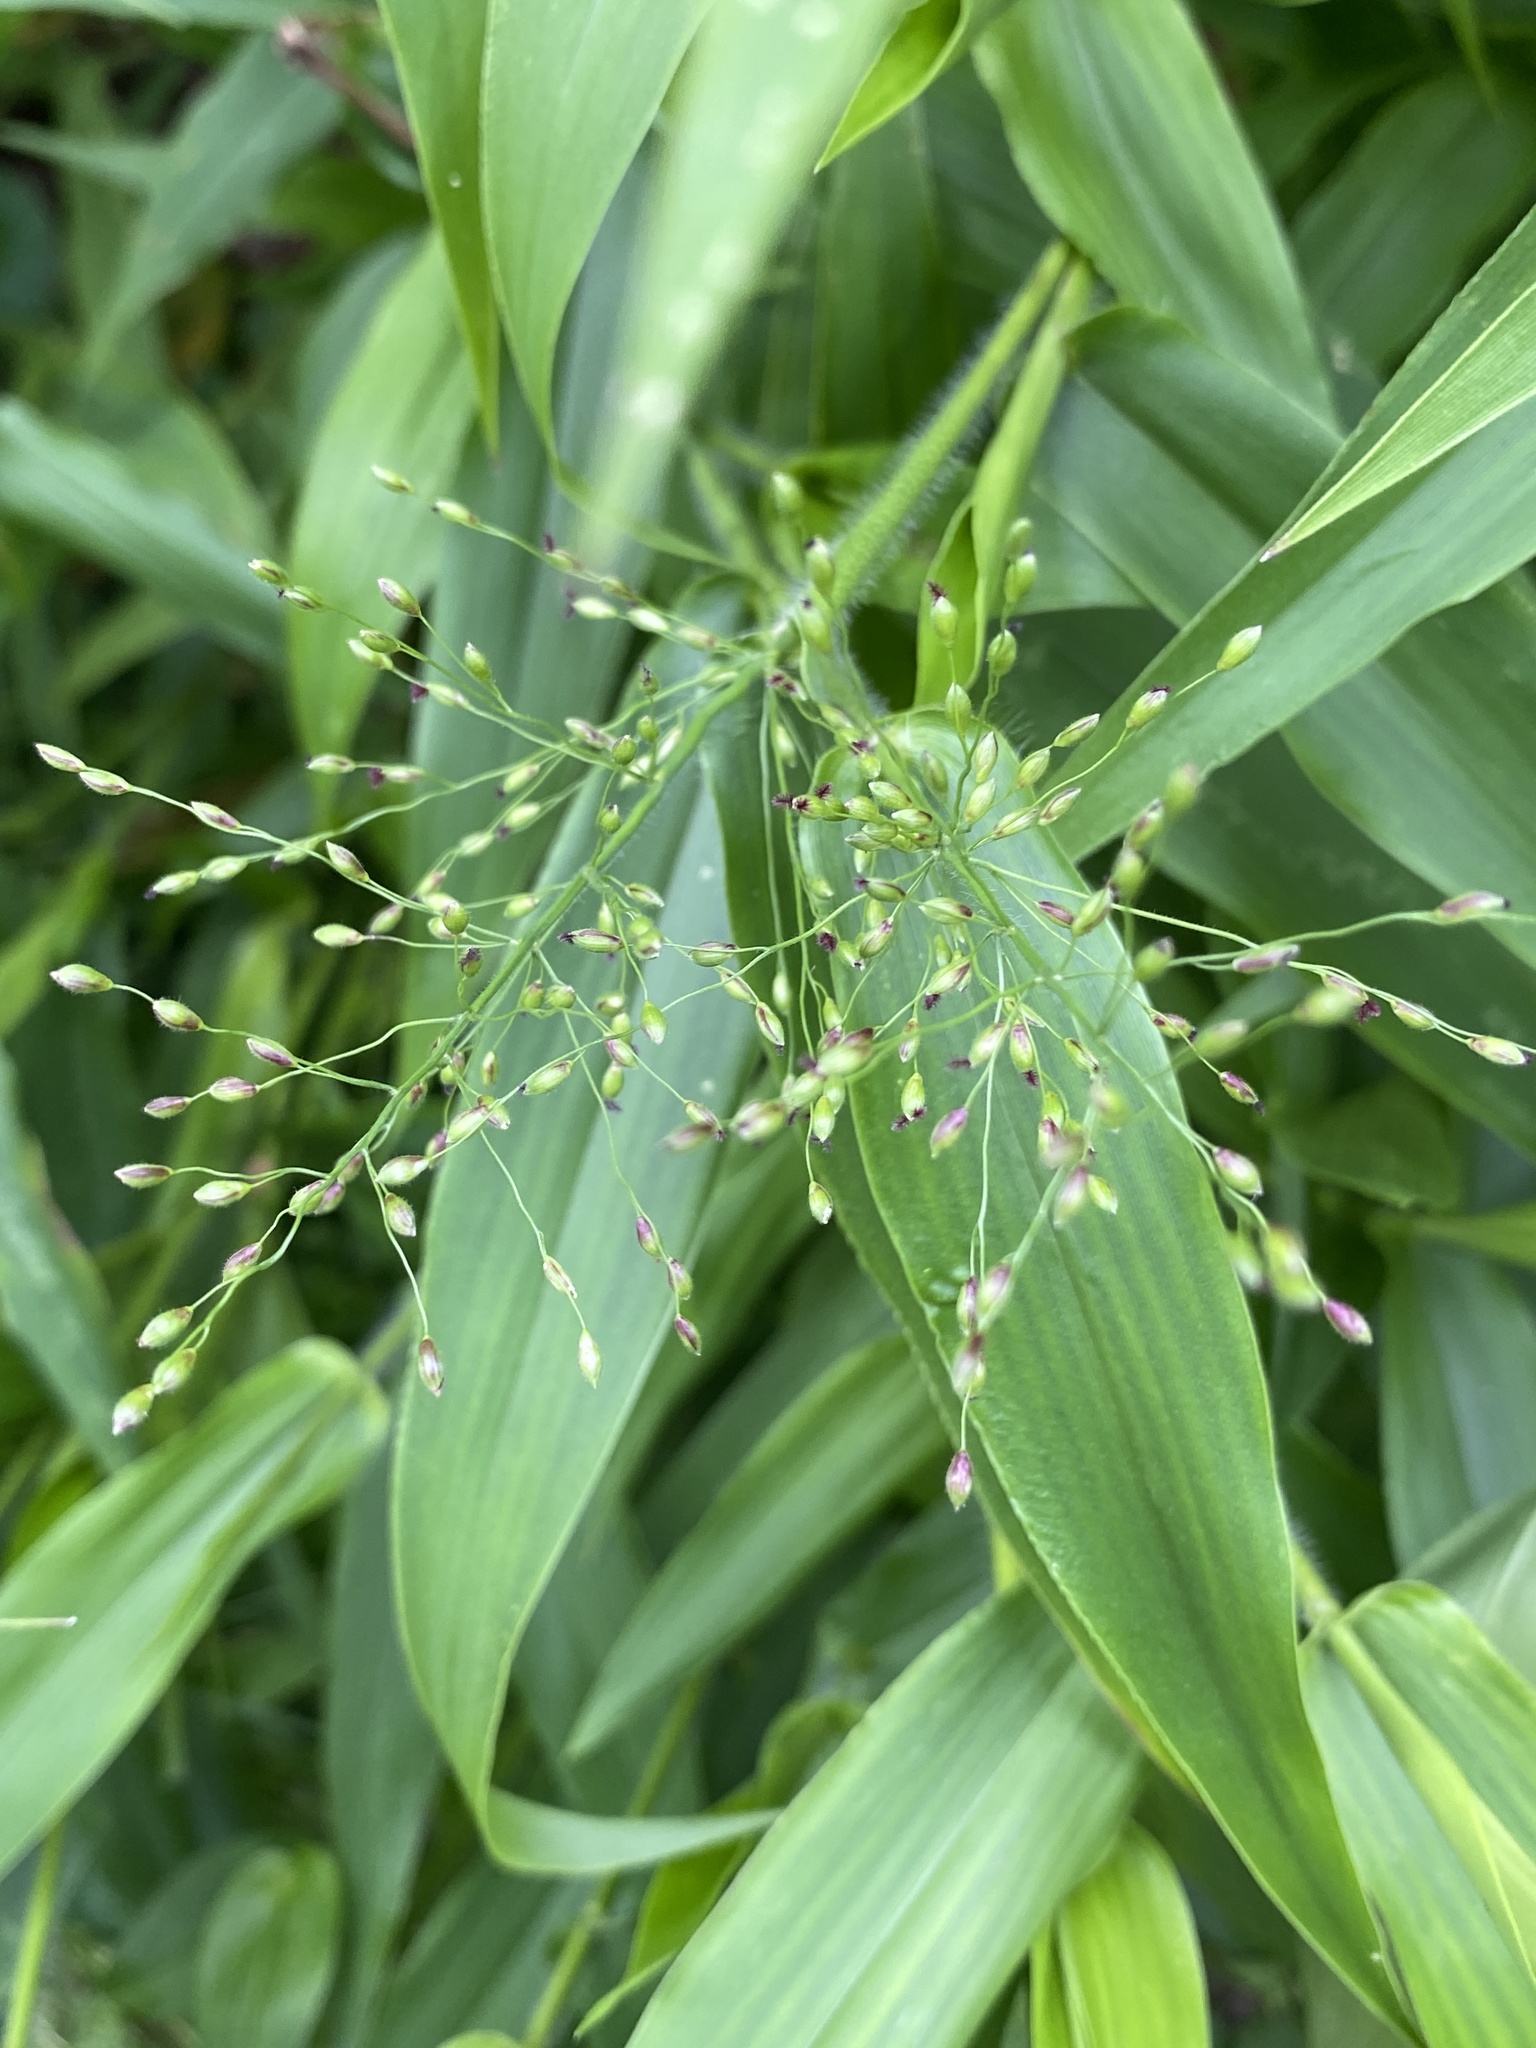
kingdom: Plantae
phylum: Tracheophyta
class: Liliopsida
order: Poales
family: Poaceae
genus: Dichanthelium
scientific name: Dichanthelium clandestinum
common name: Deer-tongue grass
